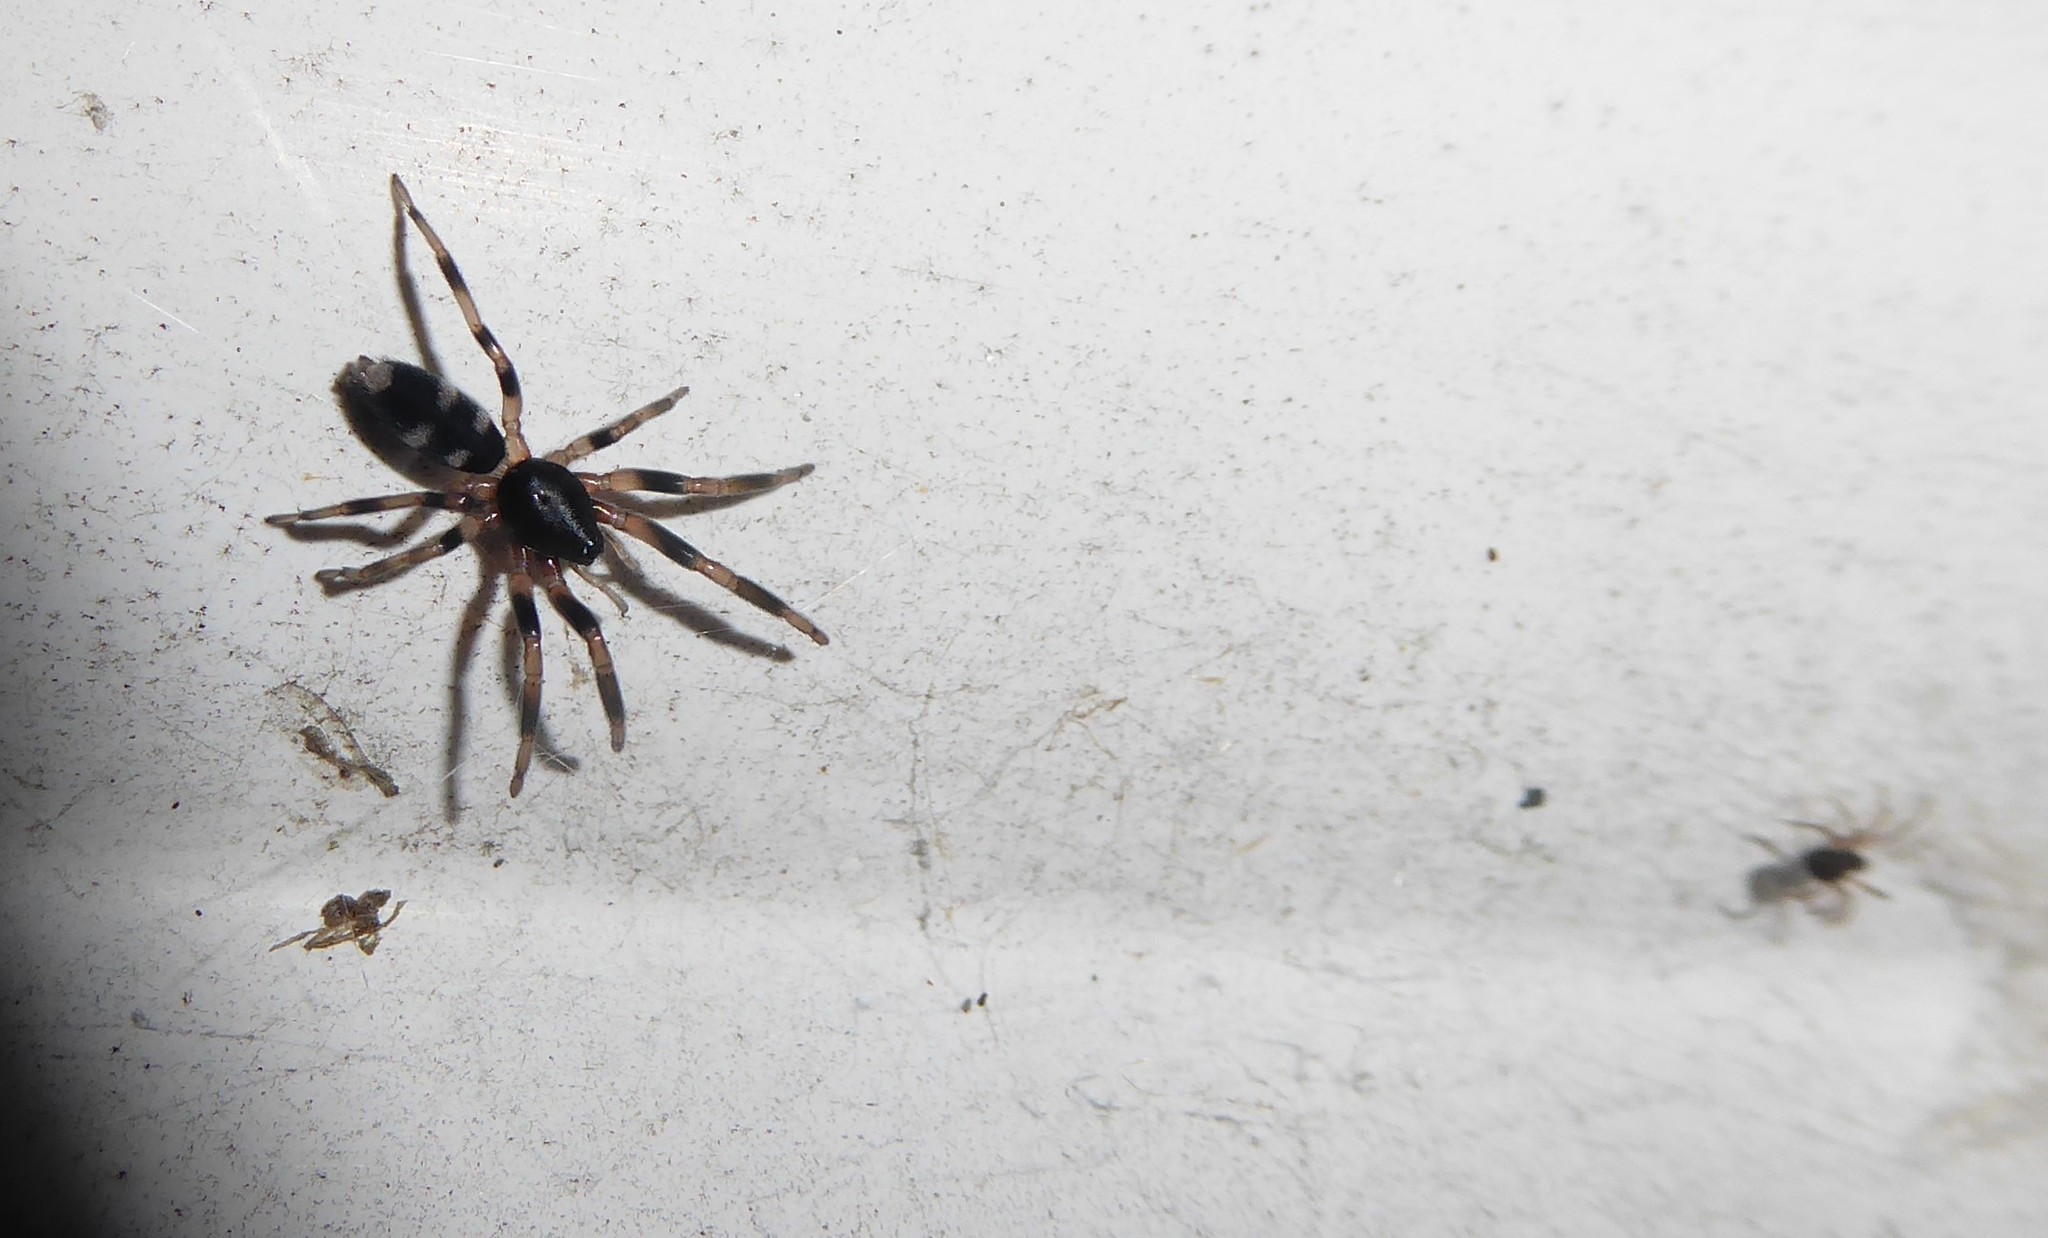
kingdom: Animalia
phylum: Arthropoda
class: Arachnida
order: Araneae
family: Lamponidae
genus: Lampona
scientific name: Lampona cylindrata
